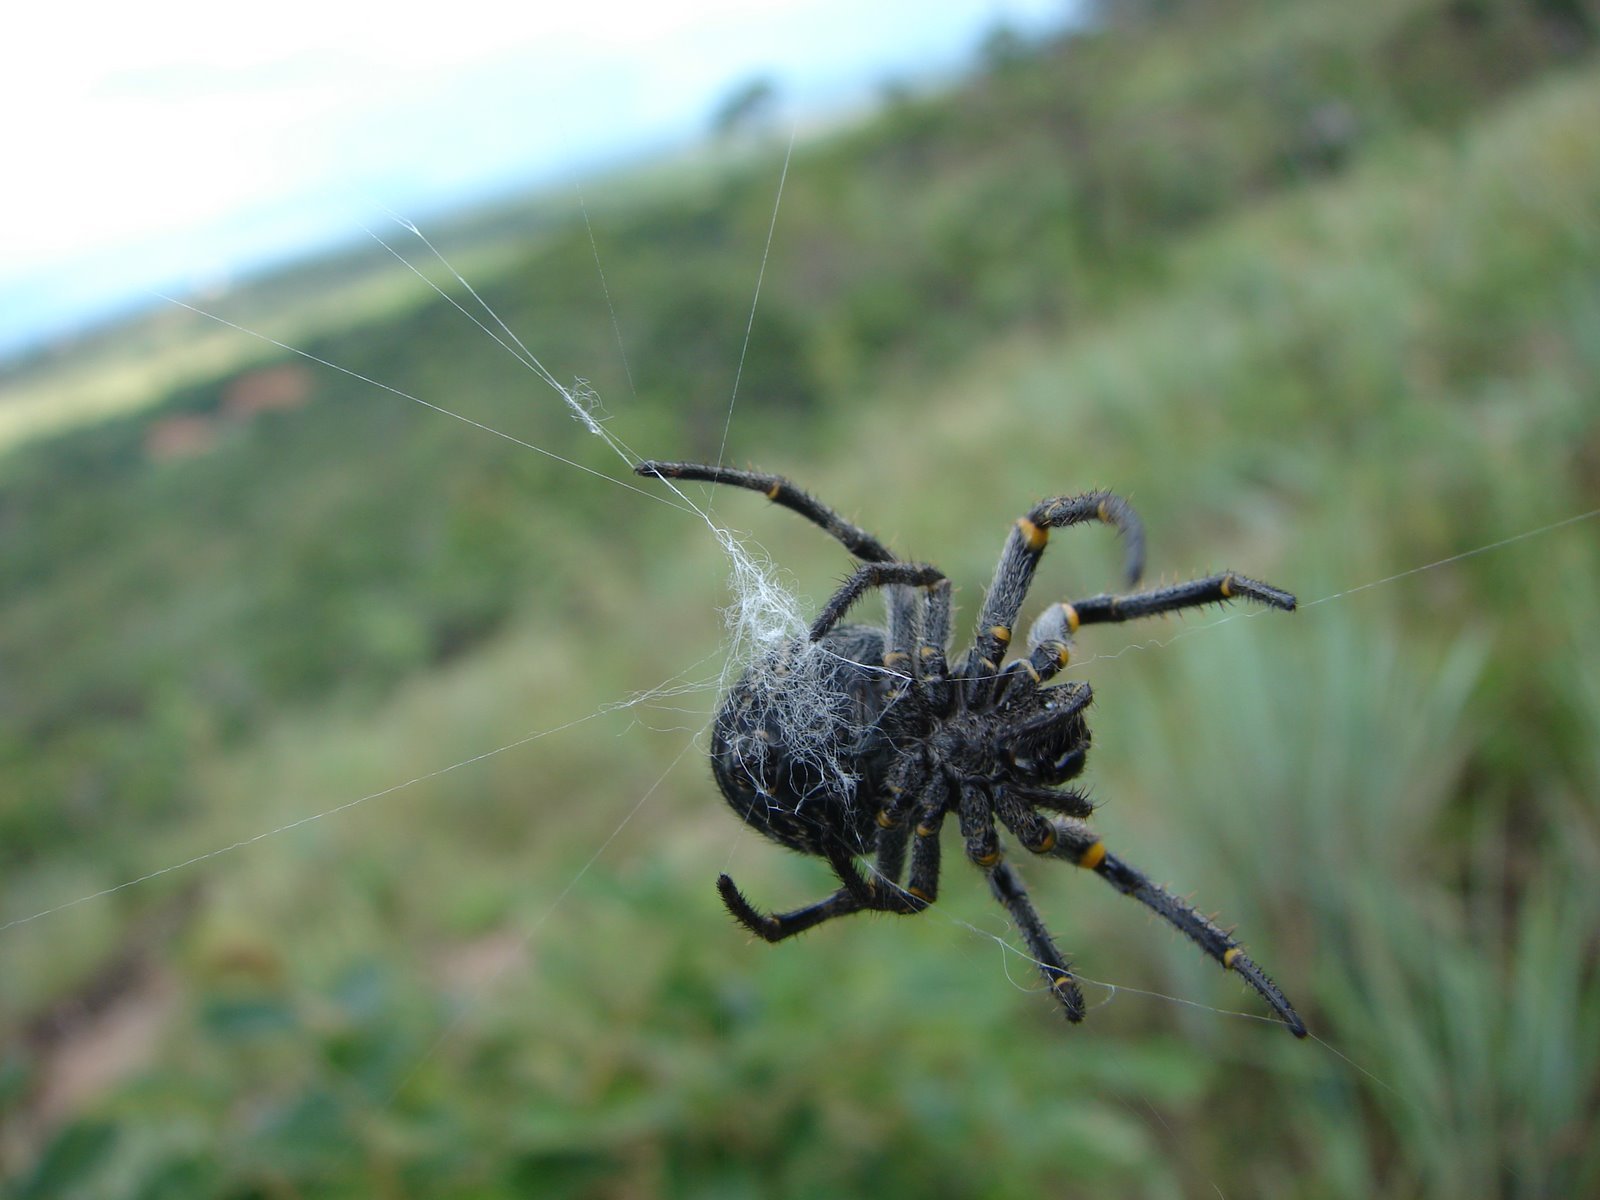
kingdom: Animalia
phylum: Arthropoda
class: Arachnida
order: Araneae
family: Araneidae
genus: Parawixia
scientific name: Parawixia bistriata
